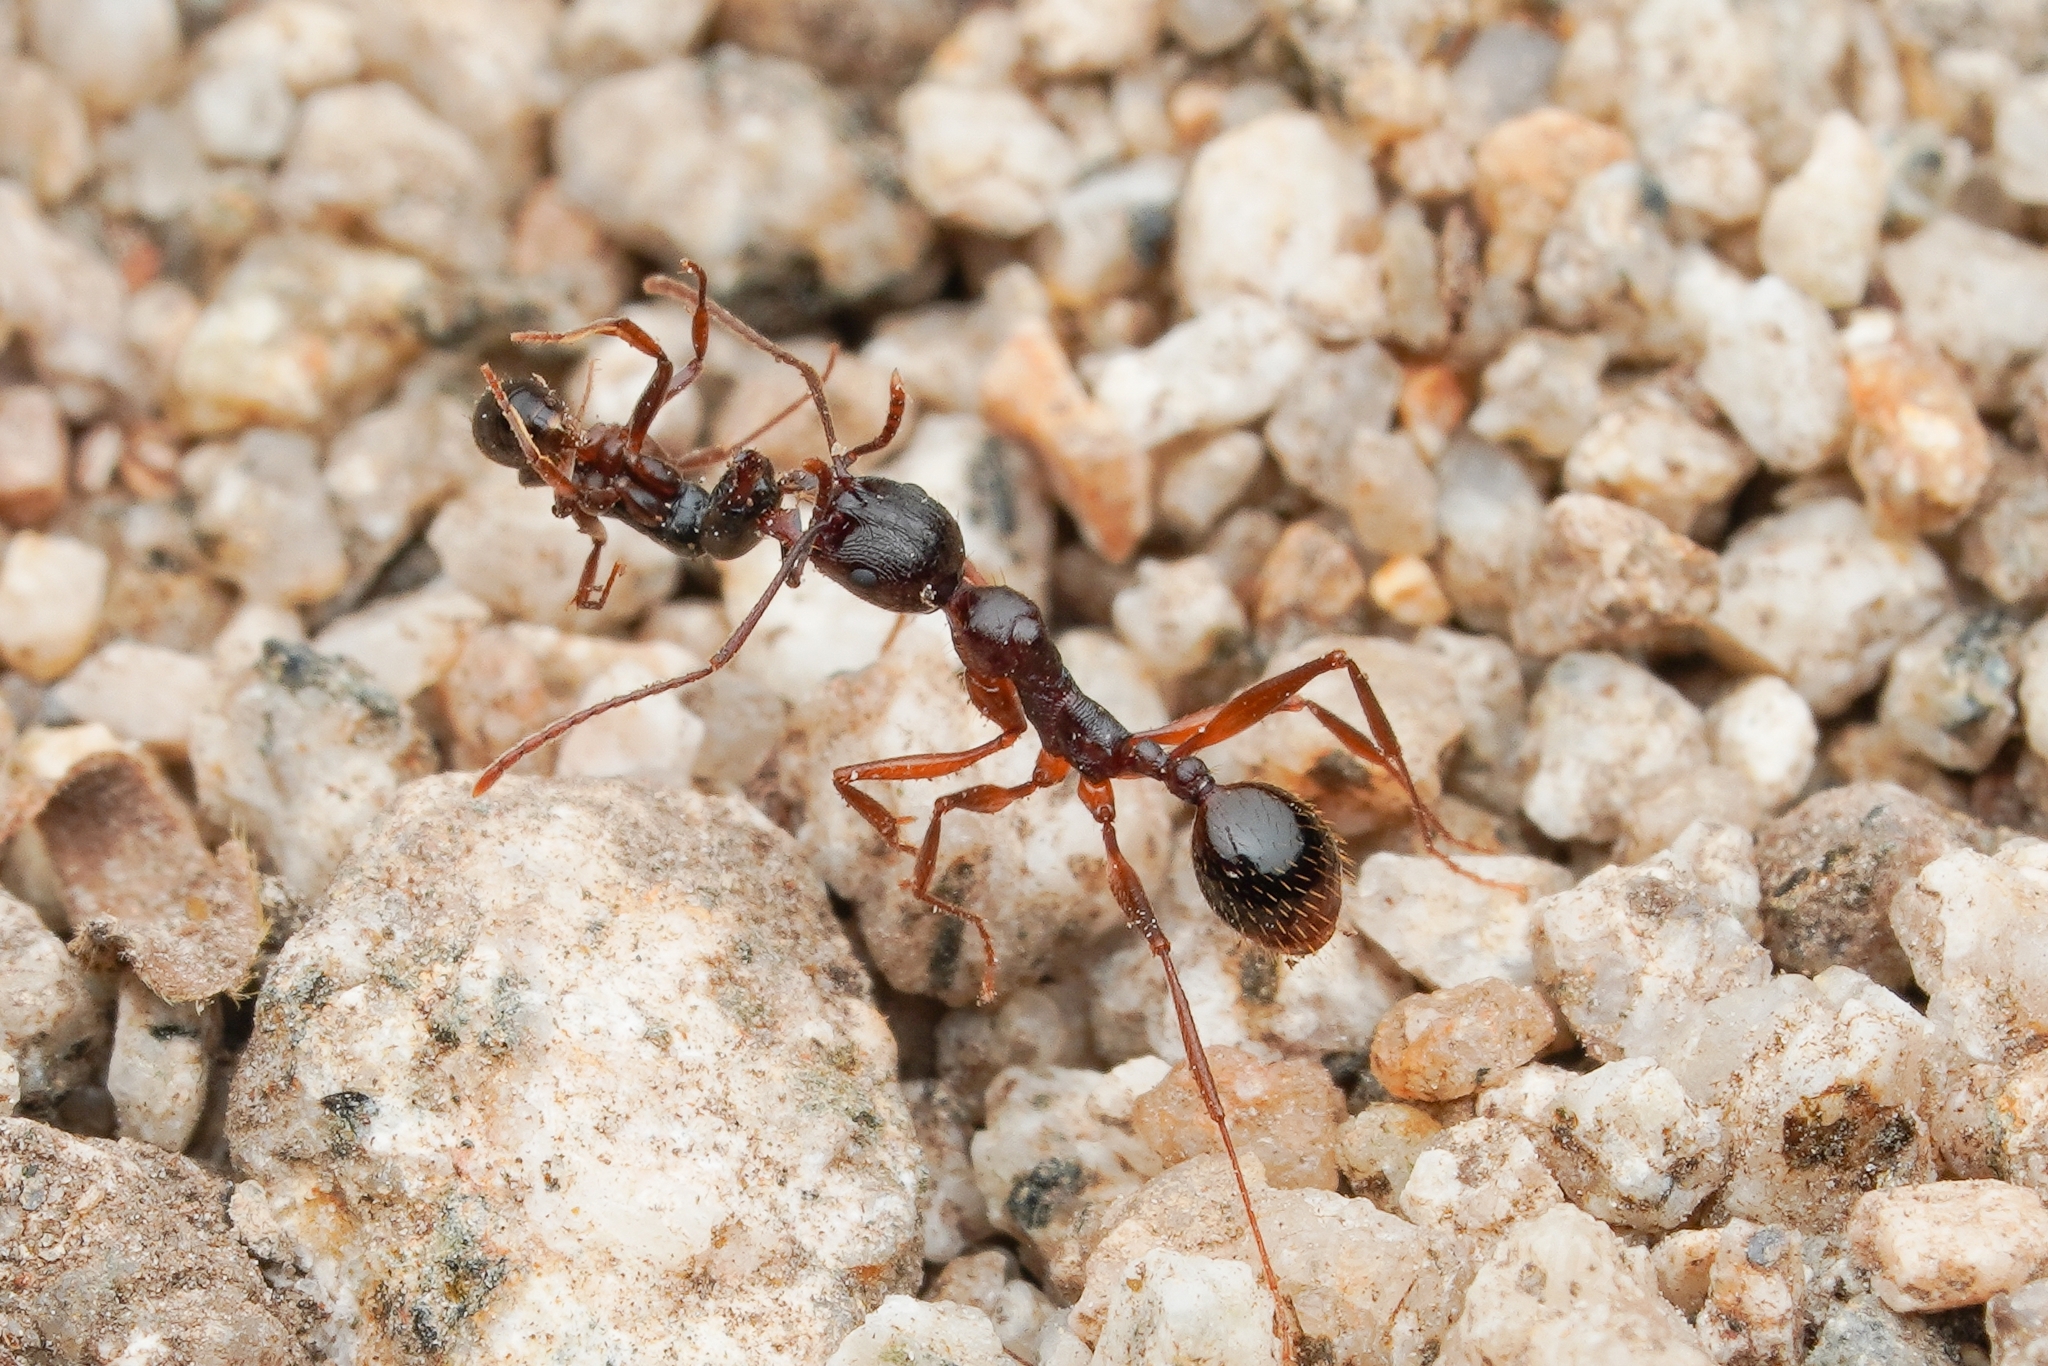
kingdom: Animalia
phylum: Arthropoda
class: Insecta
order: Hymenoptera
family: Formicidae
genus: Aphaenogaster
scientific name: Aphaenogaster japonica
